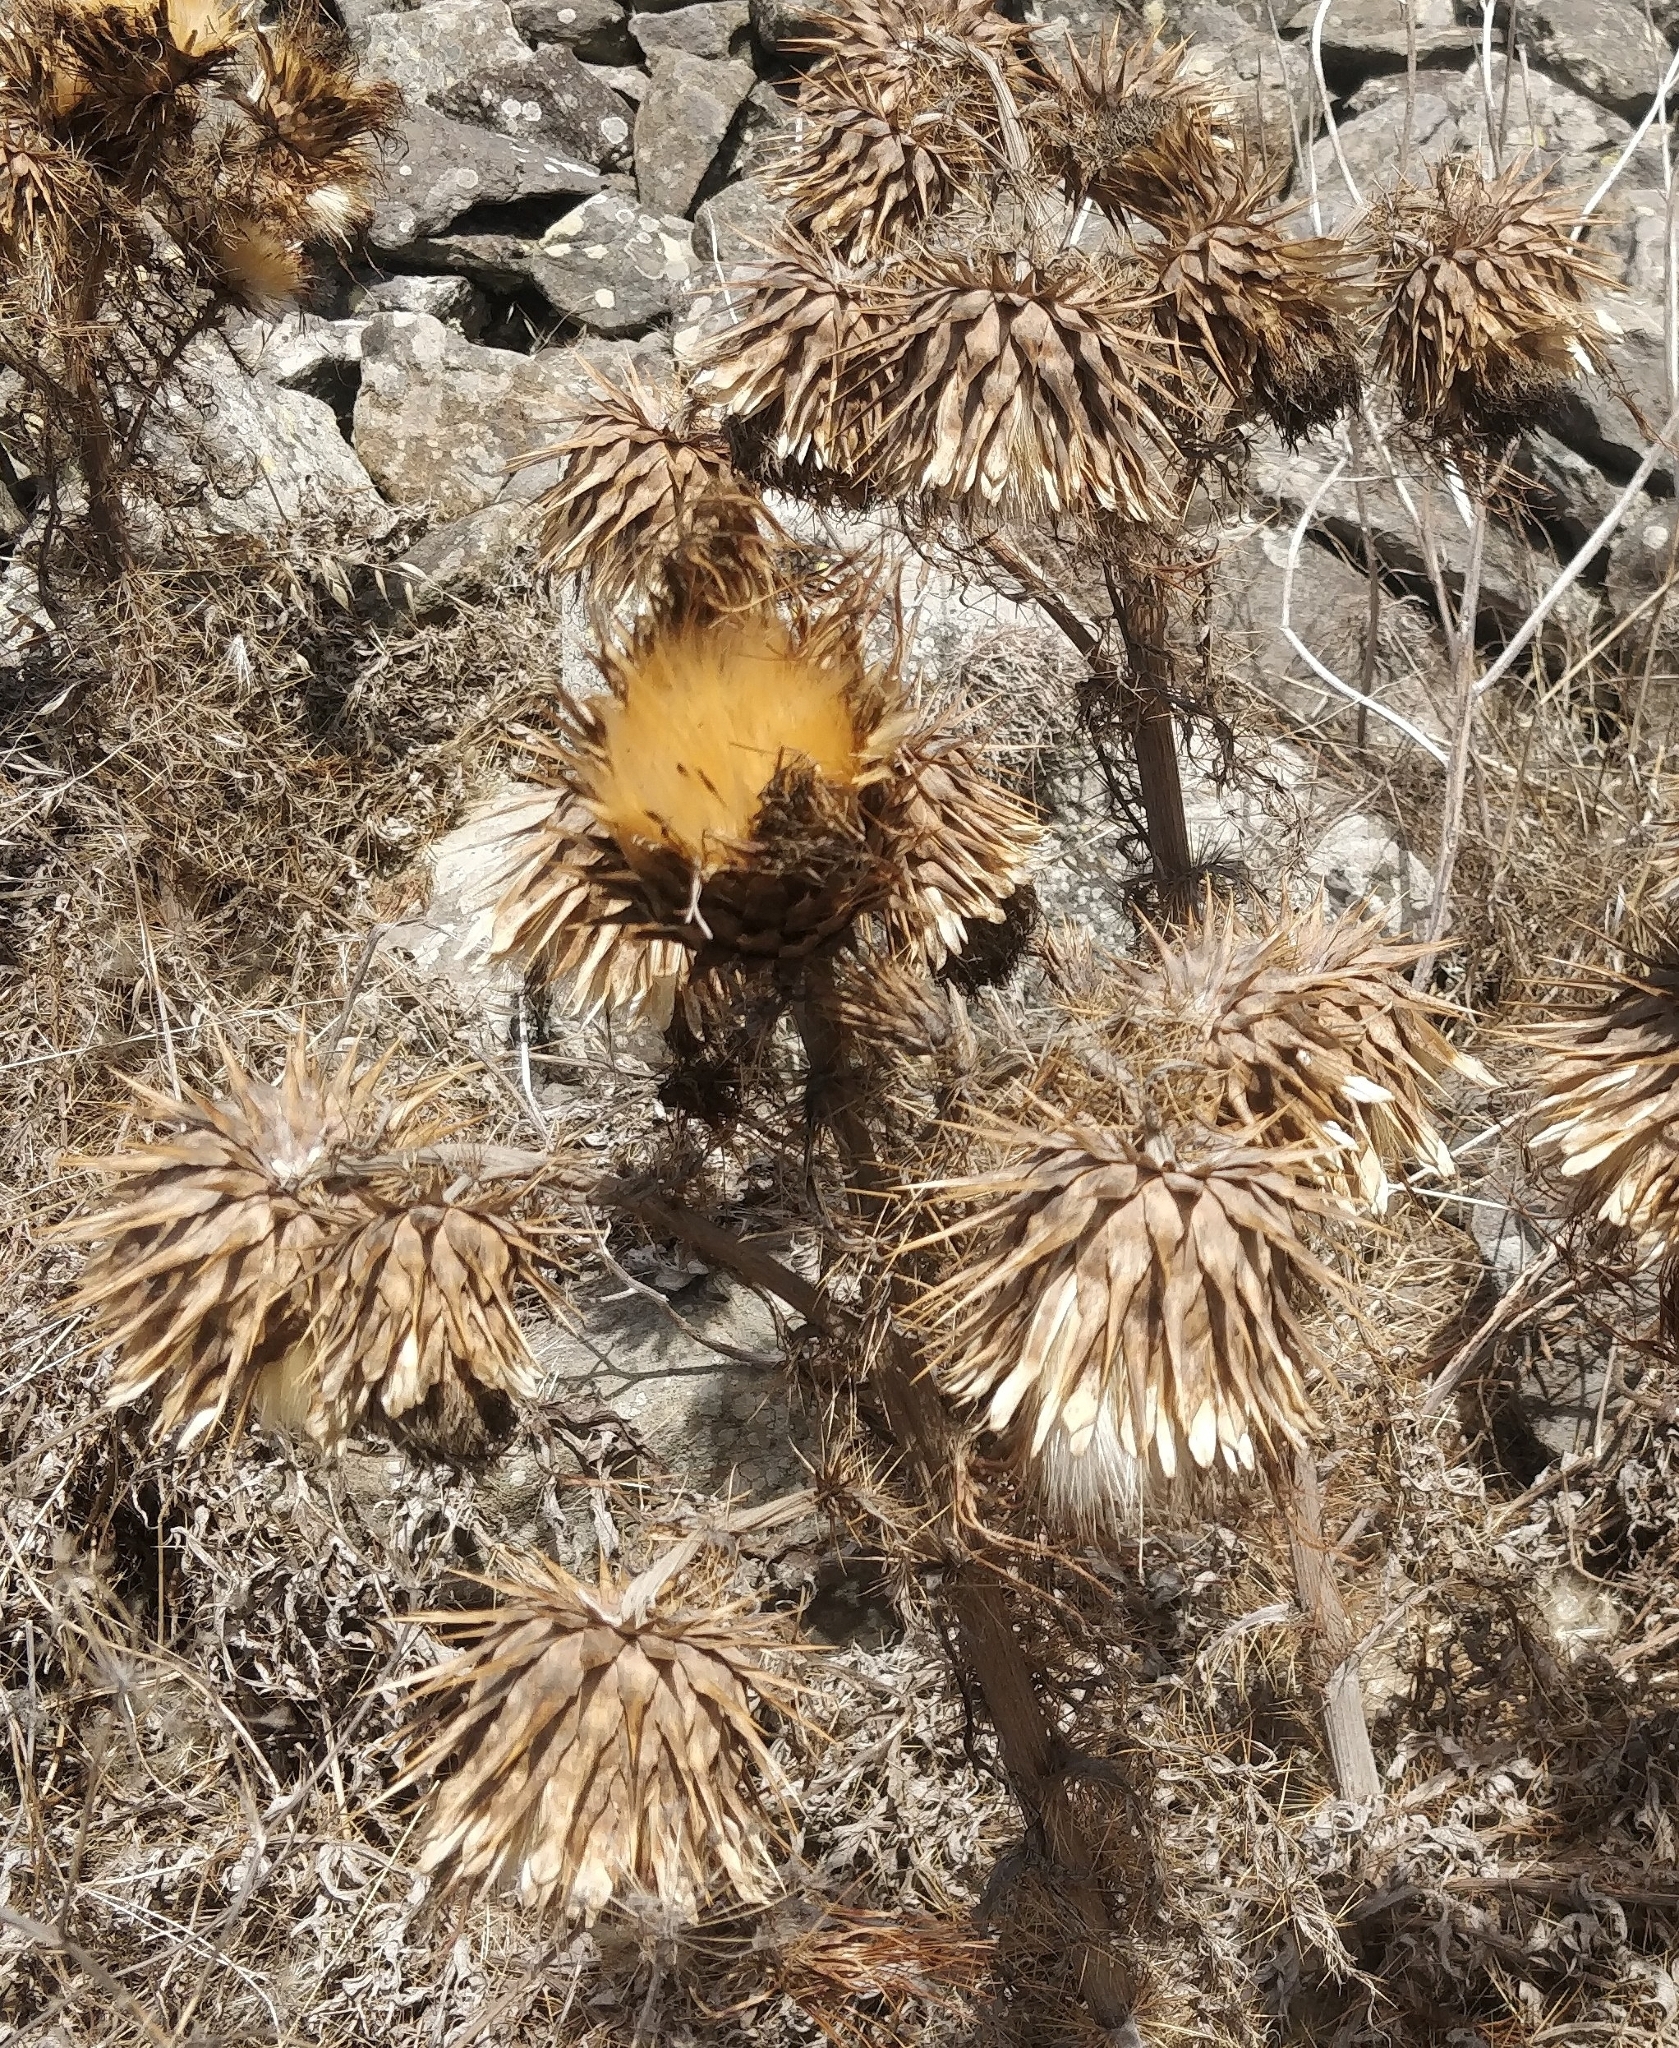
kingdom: Plantae
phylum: Tracheophyta
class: Magnoliopsida
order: Asterales
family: Asteraceae
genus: Cynara
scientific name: Cynara cardunculus
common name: Globe artichoke
